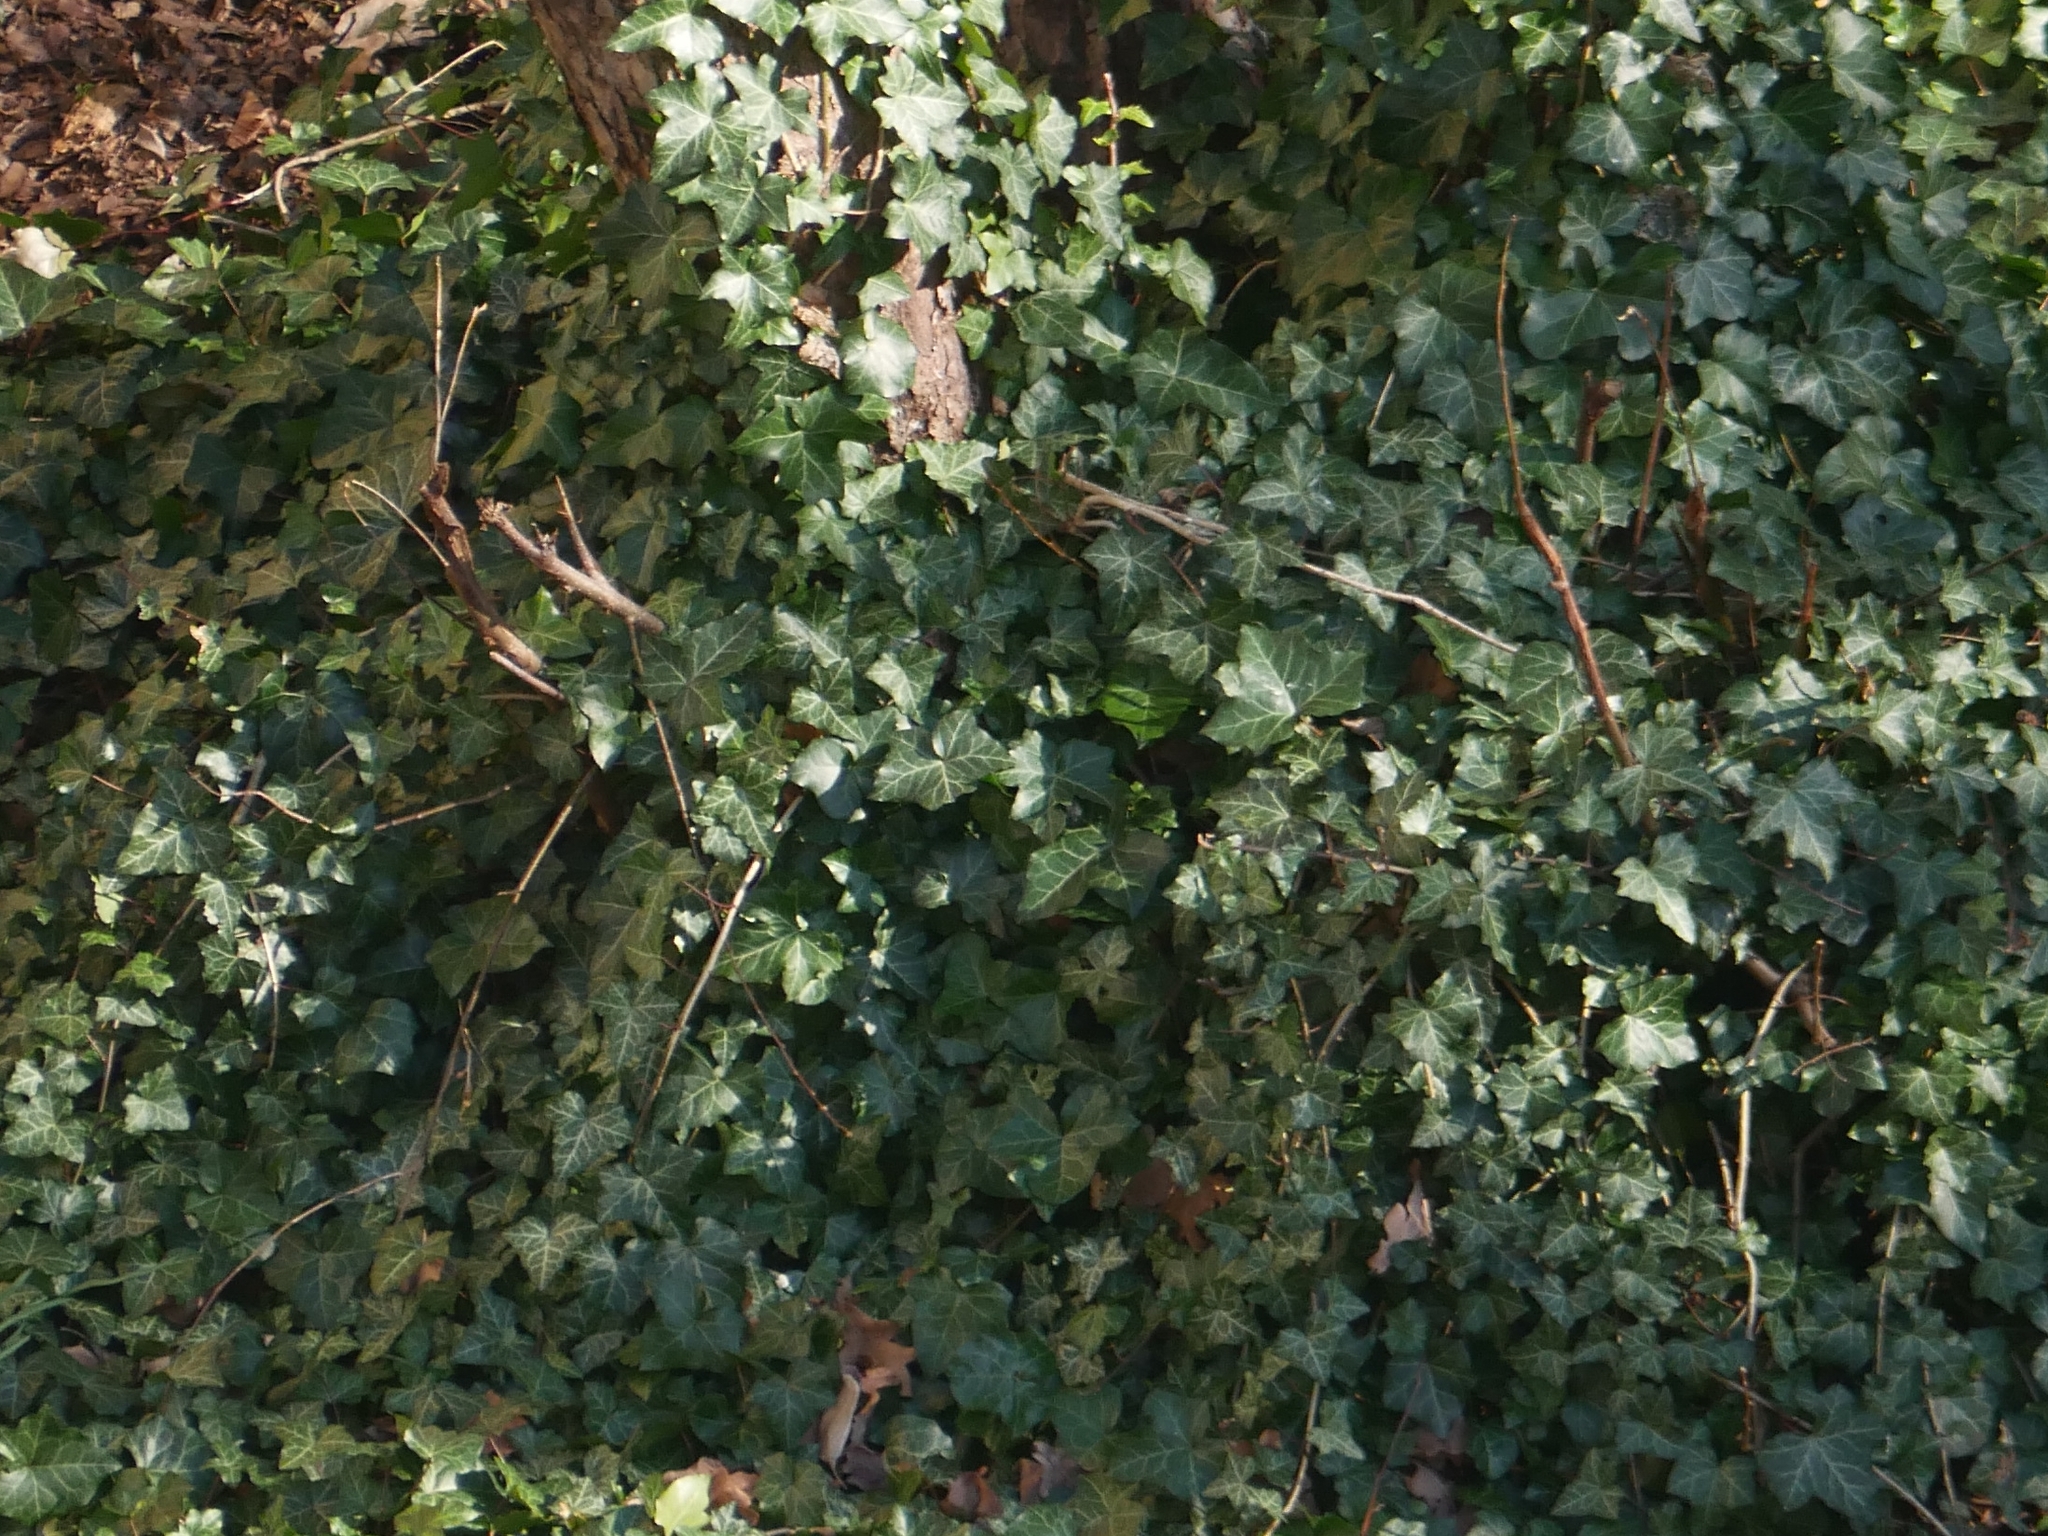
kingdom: Plantae
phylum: Tracheophyta
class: Magnoliopsida
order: Apiales
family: Araliaceae
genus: Hedera
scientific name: Hedera helix
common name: Ivy
